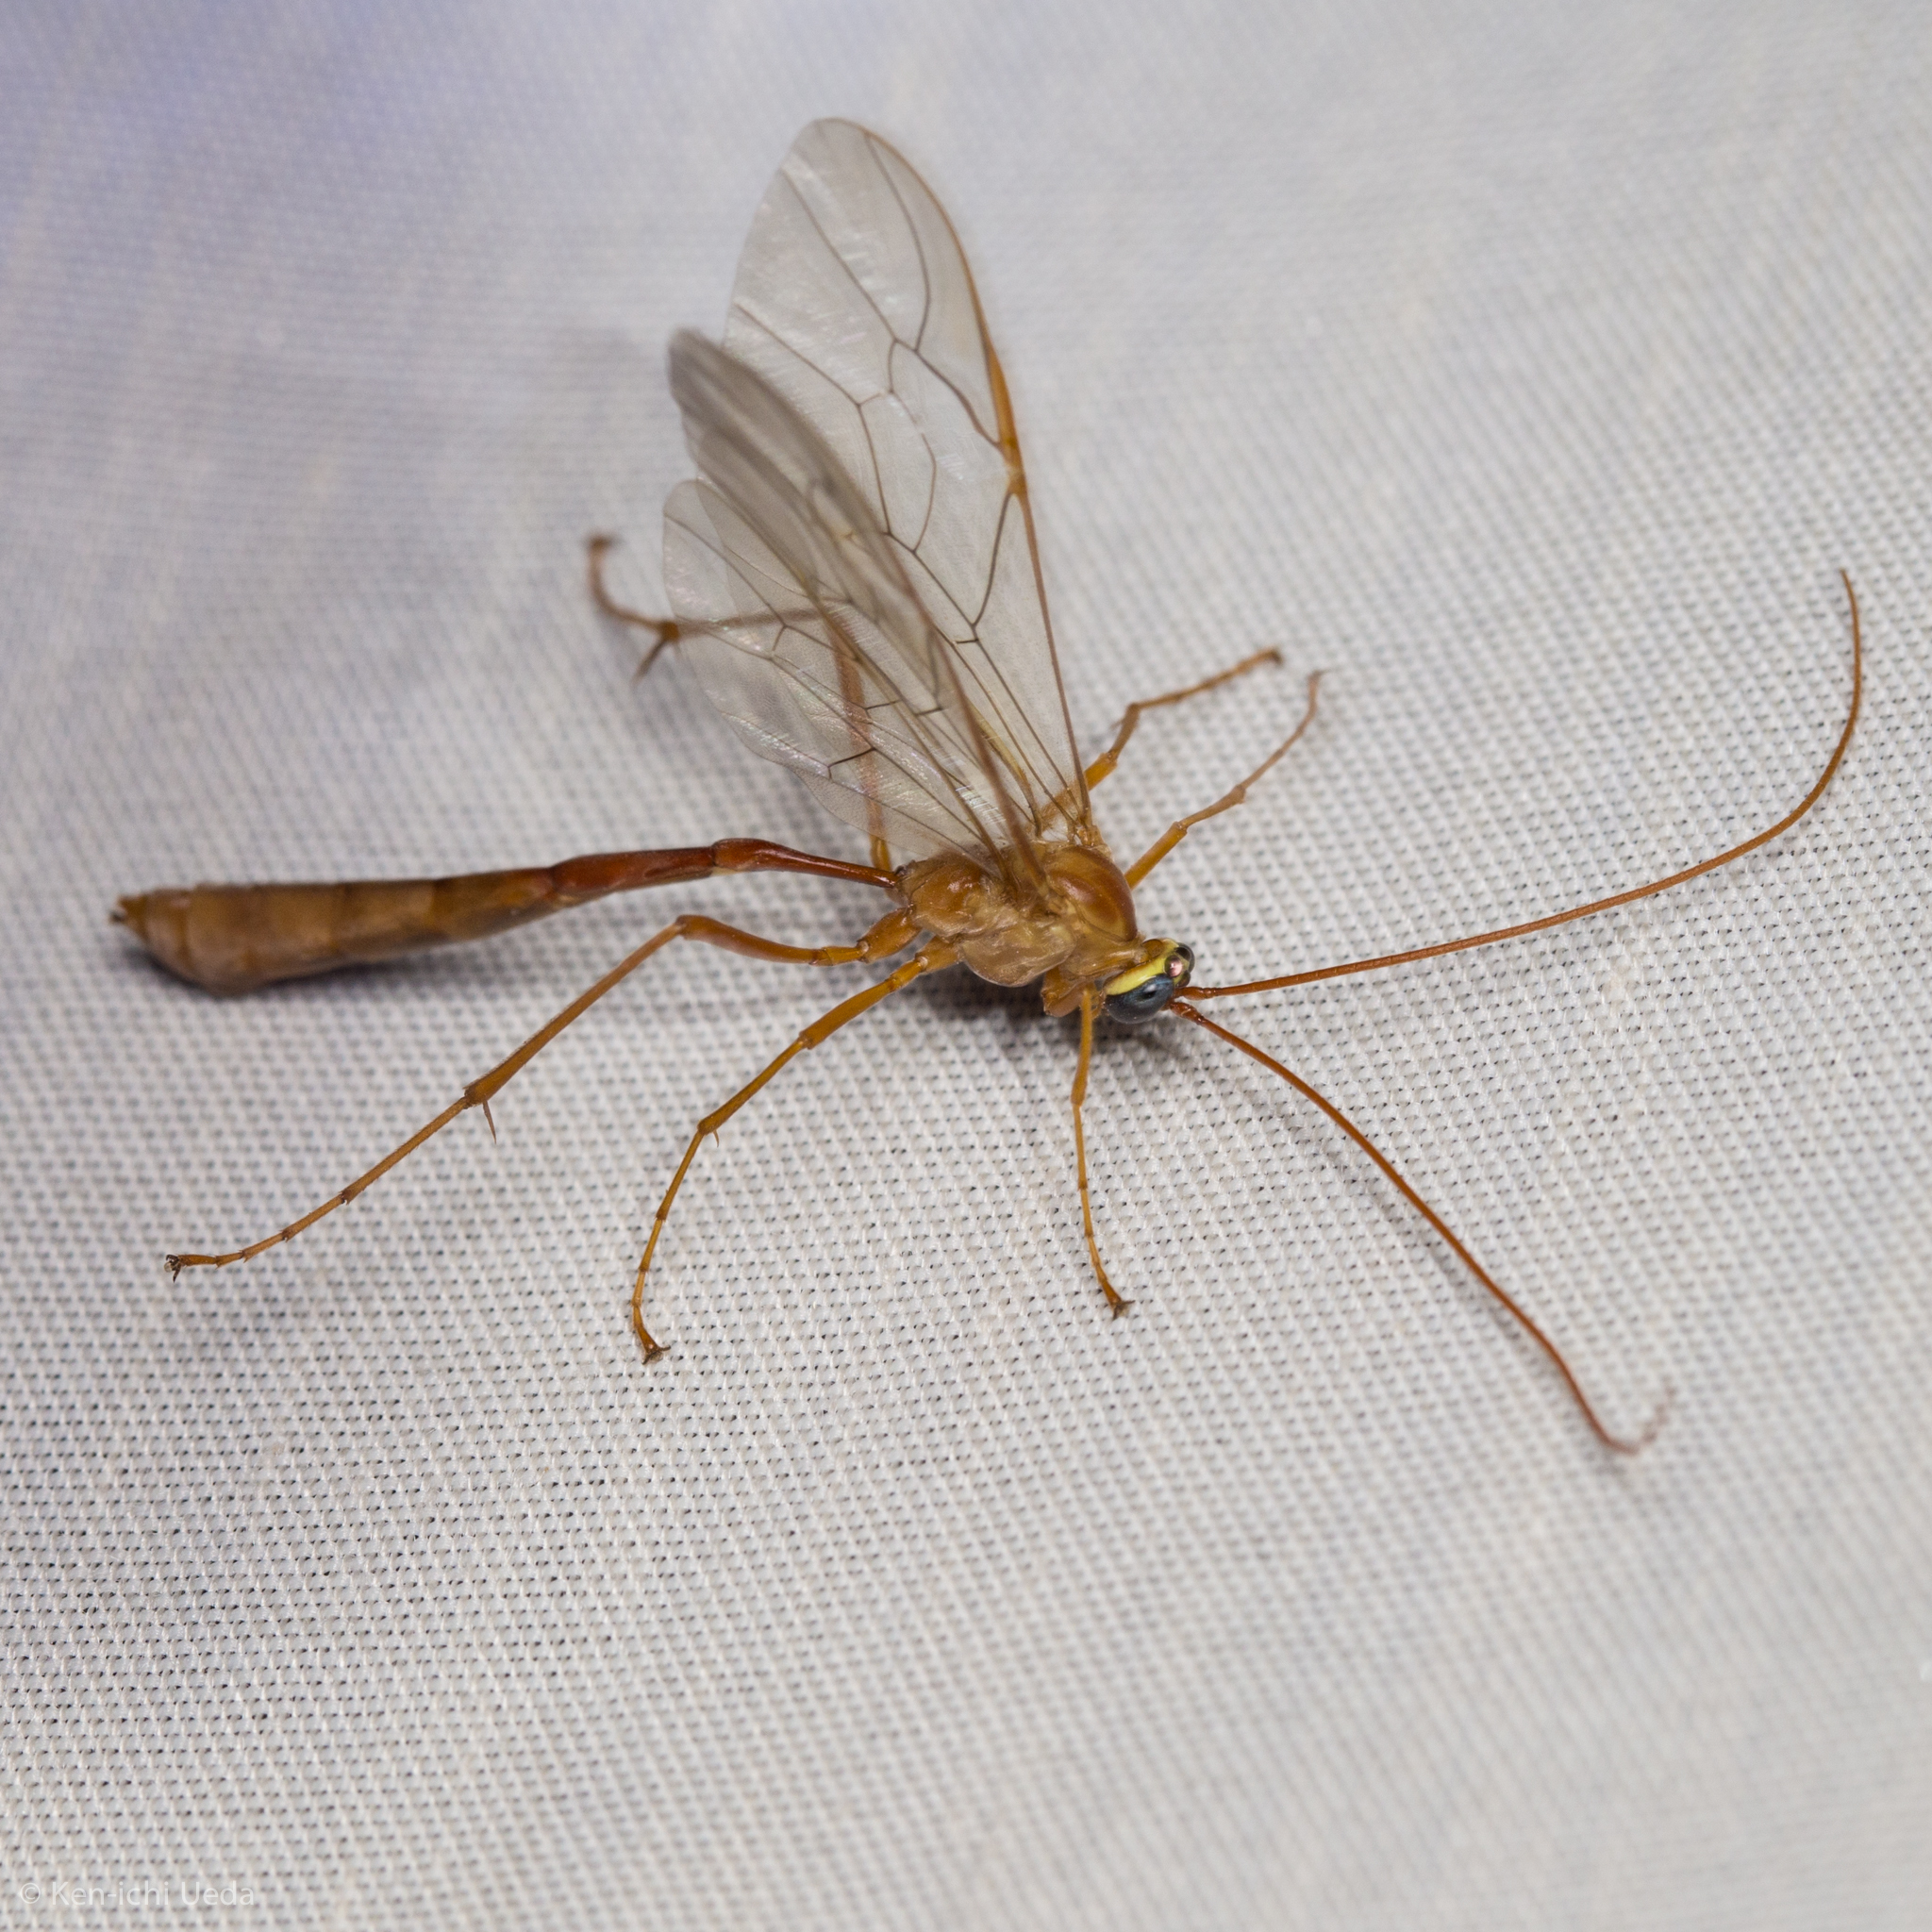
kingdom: Animalia
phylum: Arthropoda
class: Insecta
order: Hymenoptera
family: Ichneumonidae
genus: Enicospilus
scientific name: Enicospilus
